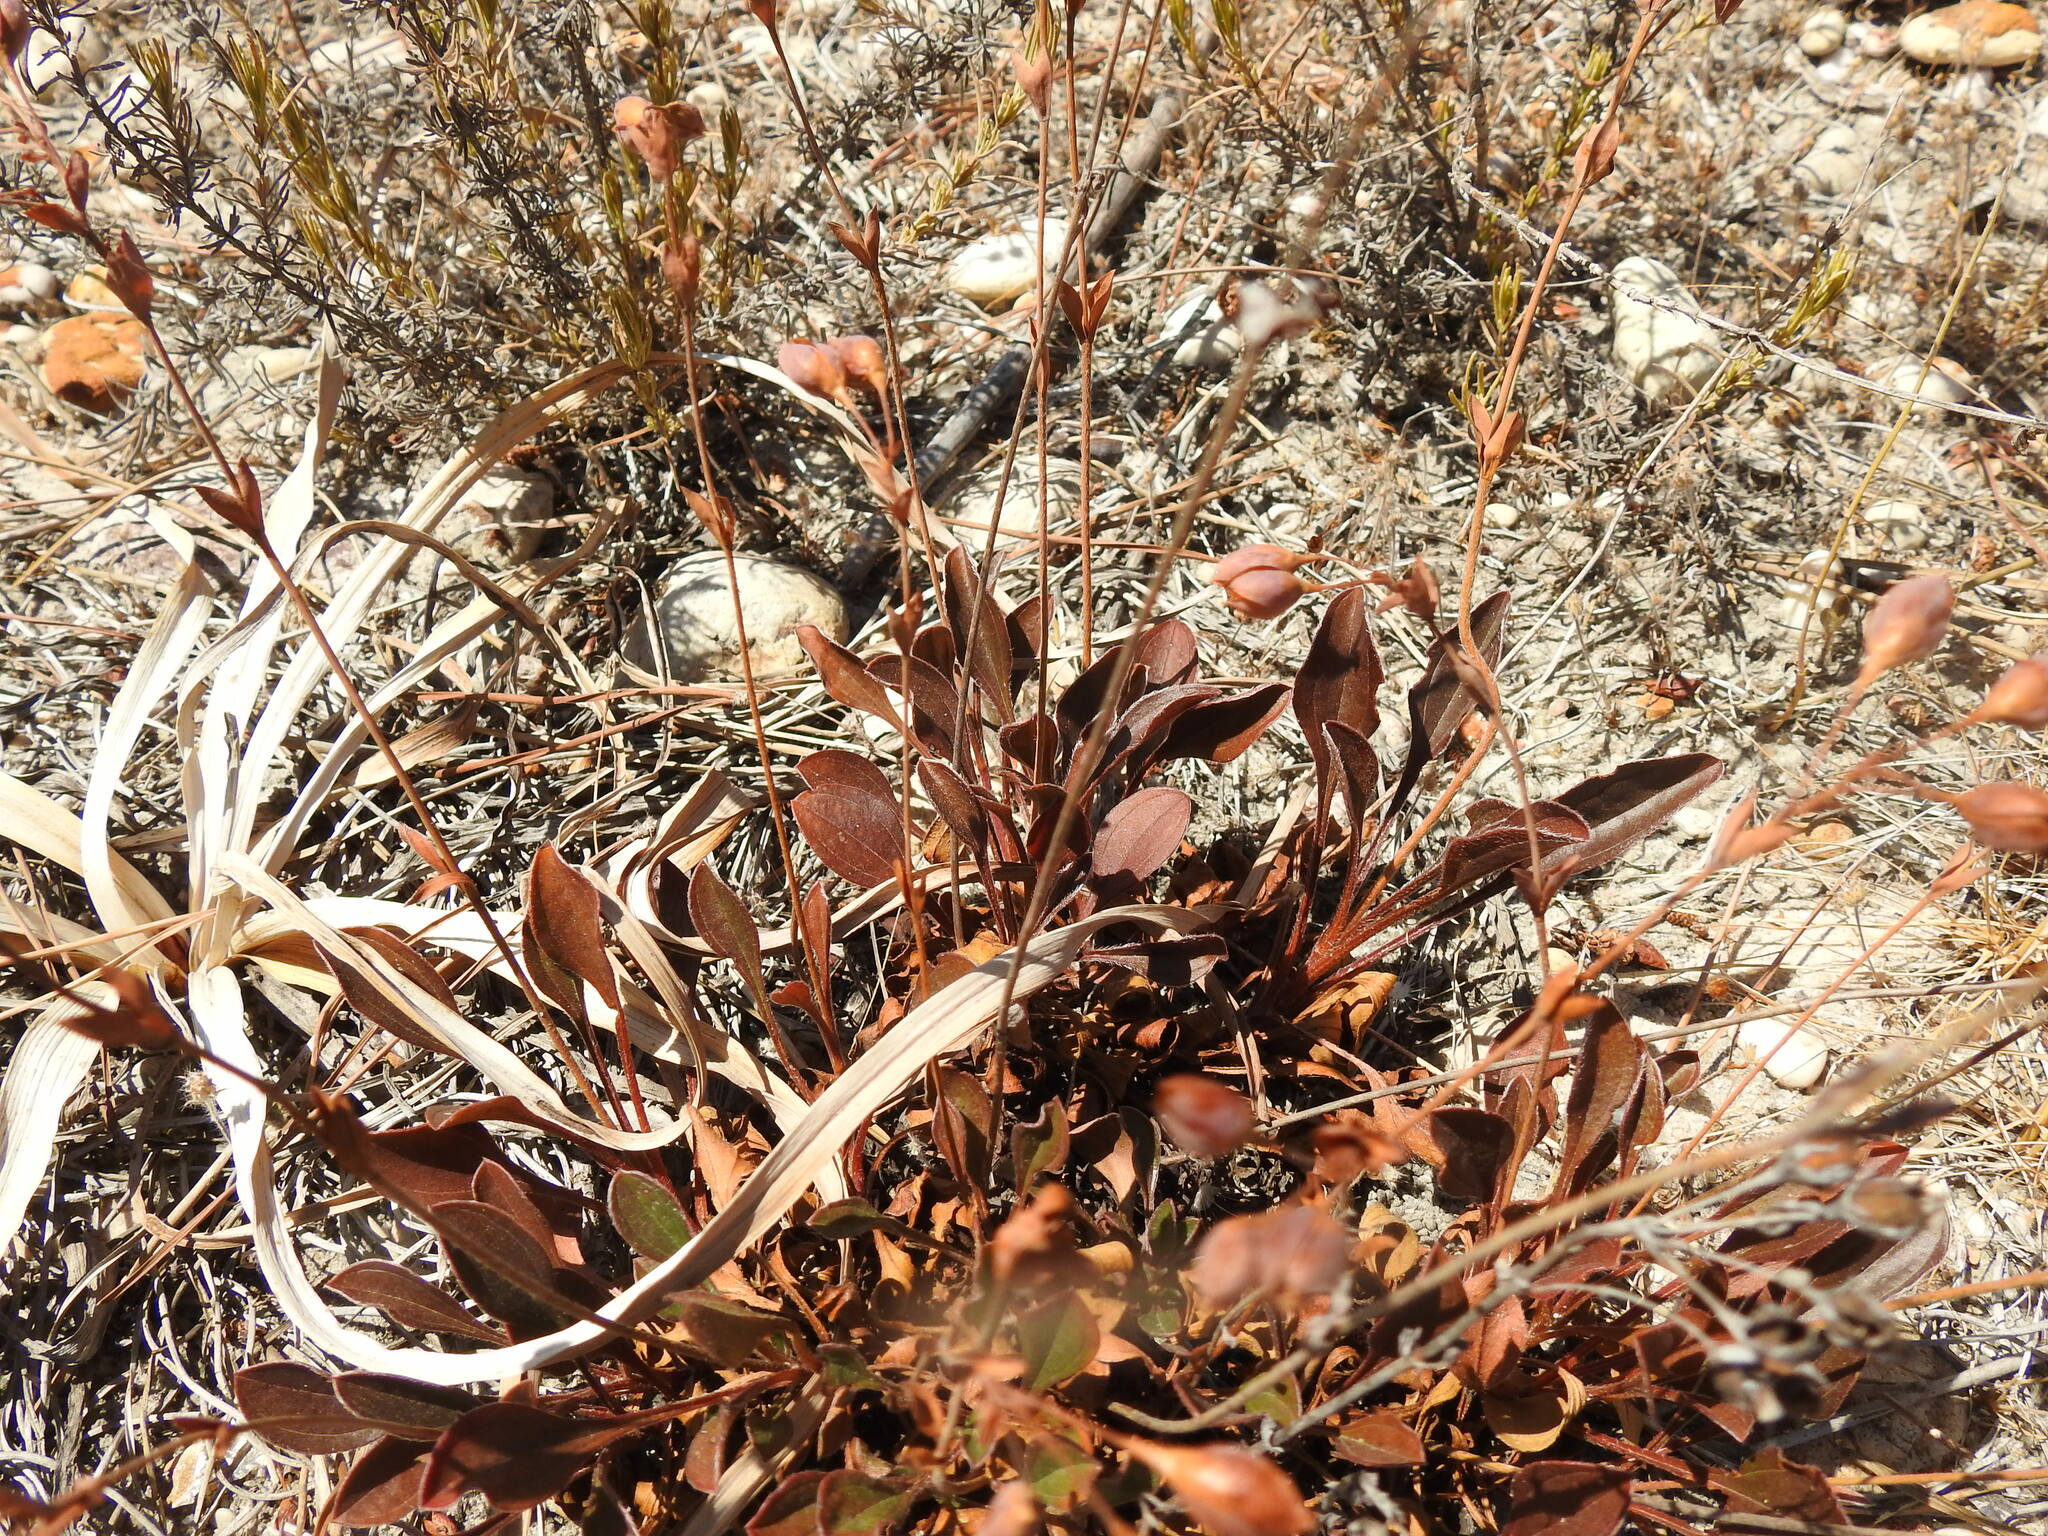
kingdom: Plantae
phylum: Tracheophyta
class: Magnoliopsida
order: Malvales
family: Cistaceae
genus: Tuberaria
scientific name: Tuberaria globulariifolia
